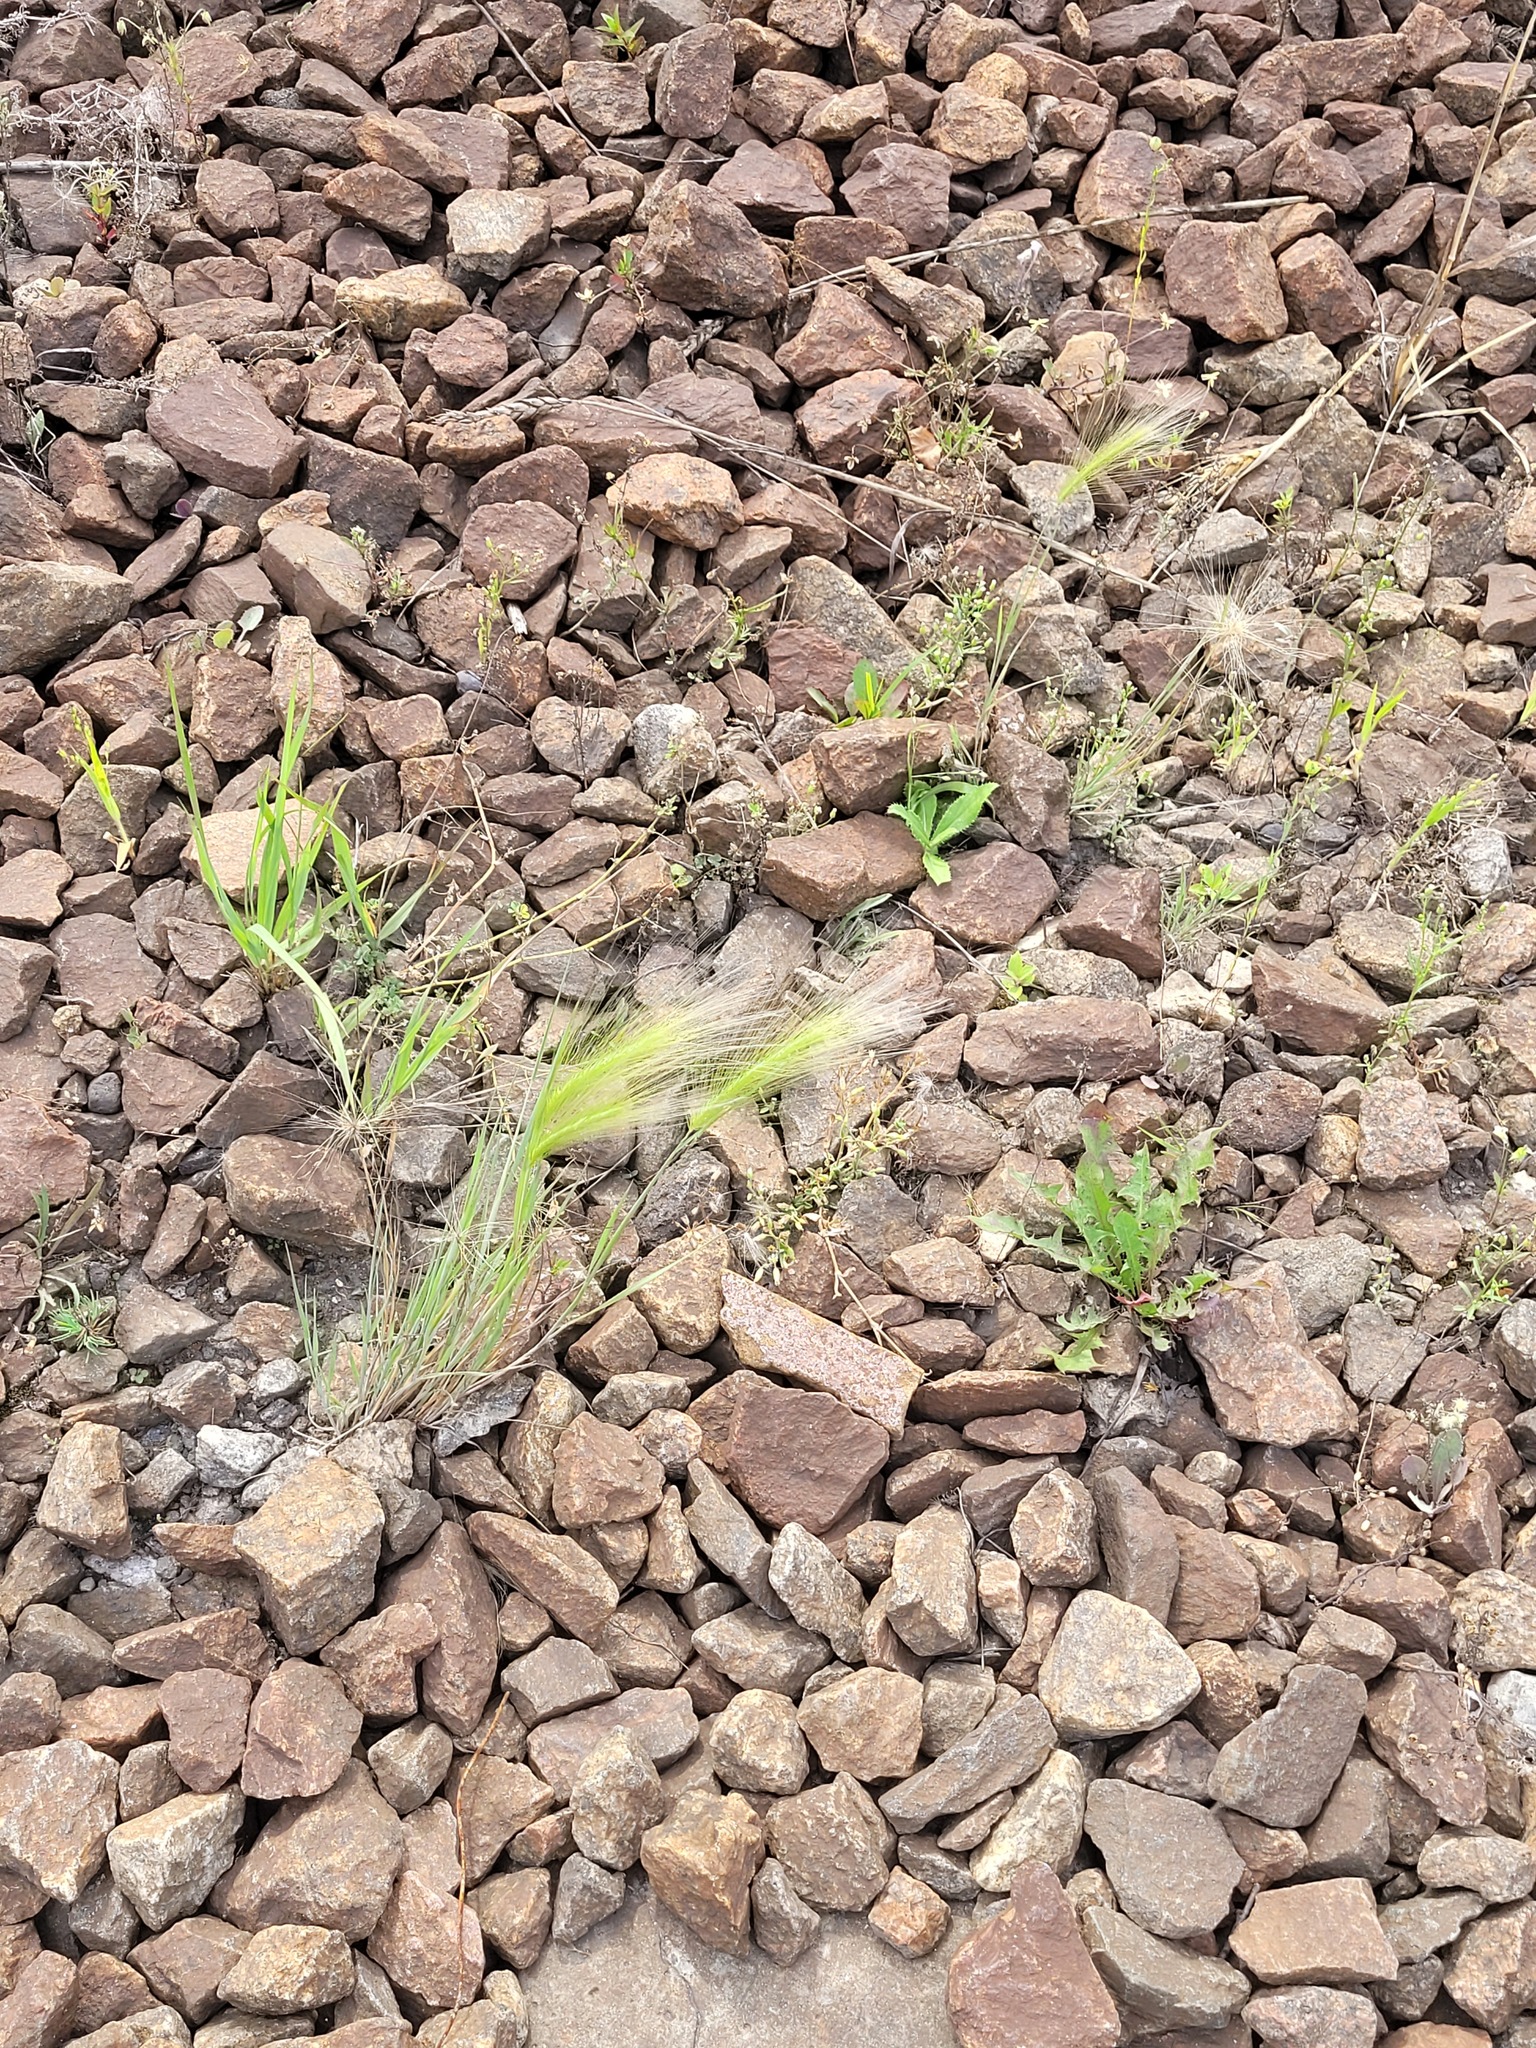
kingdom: Plantae
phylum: Tracheophyta
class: Liliopsida
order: Poales
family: Poaceae
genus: Hordeum
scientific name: Hordeum jubatum
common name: Foxtail barley
